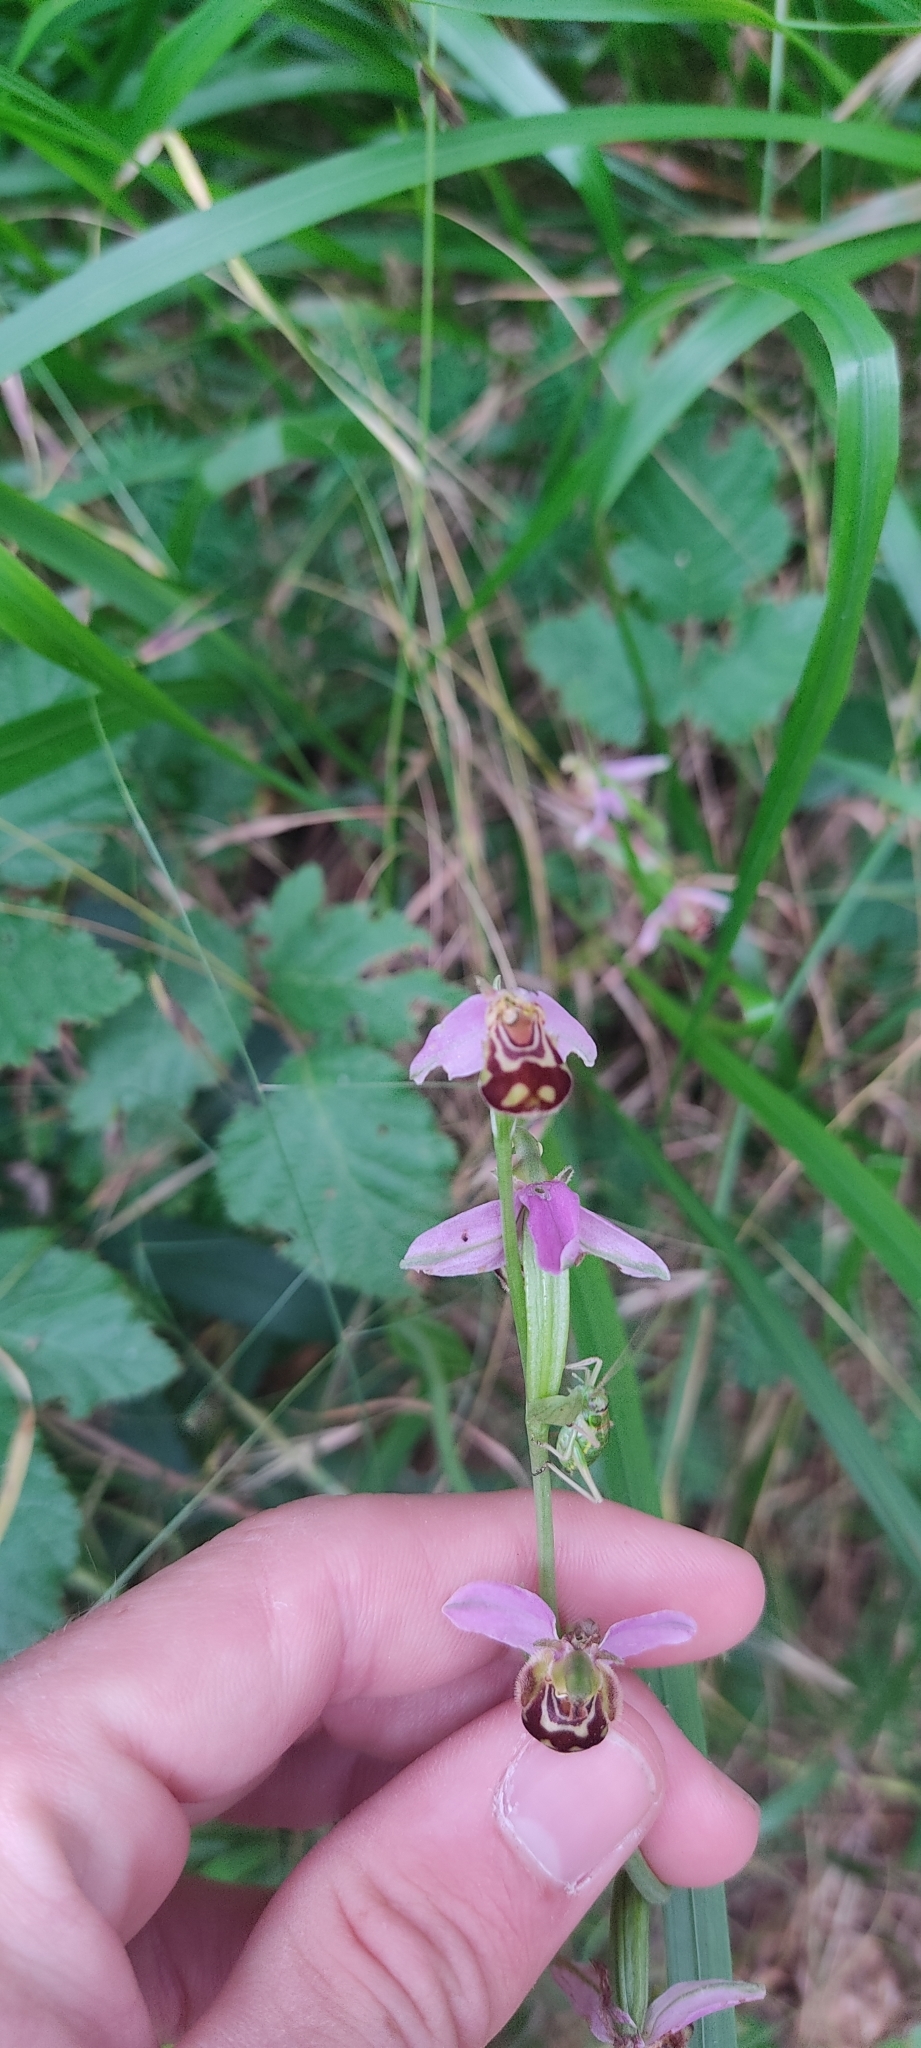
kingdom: Plantae
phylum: Tracheophyta
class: Liliopsida
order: Asparagales
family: Orchidaceae
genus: Ophrys
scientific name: Ophrys apifera
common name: Bee orchid
